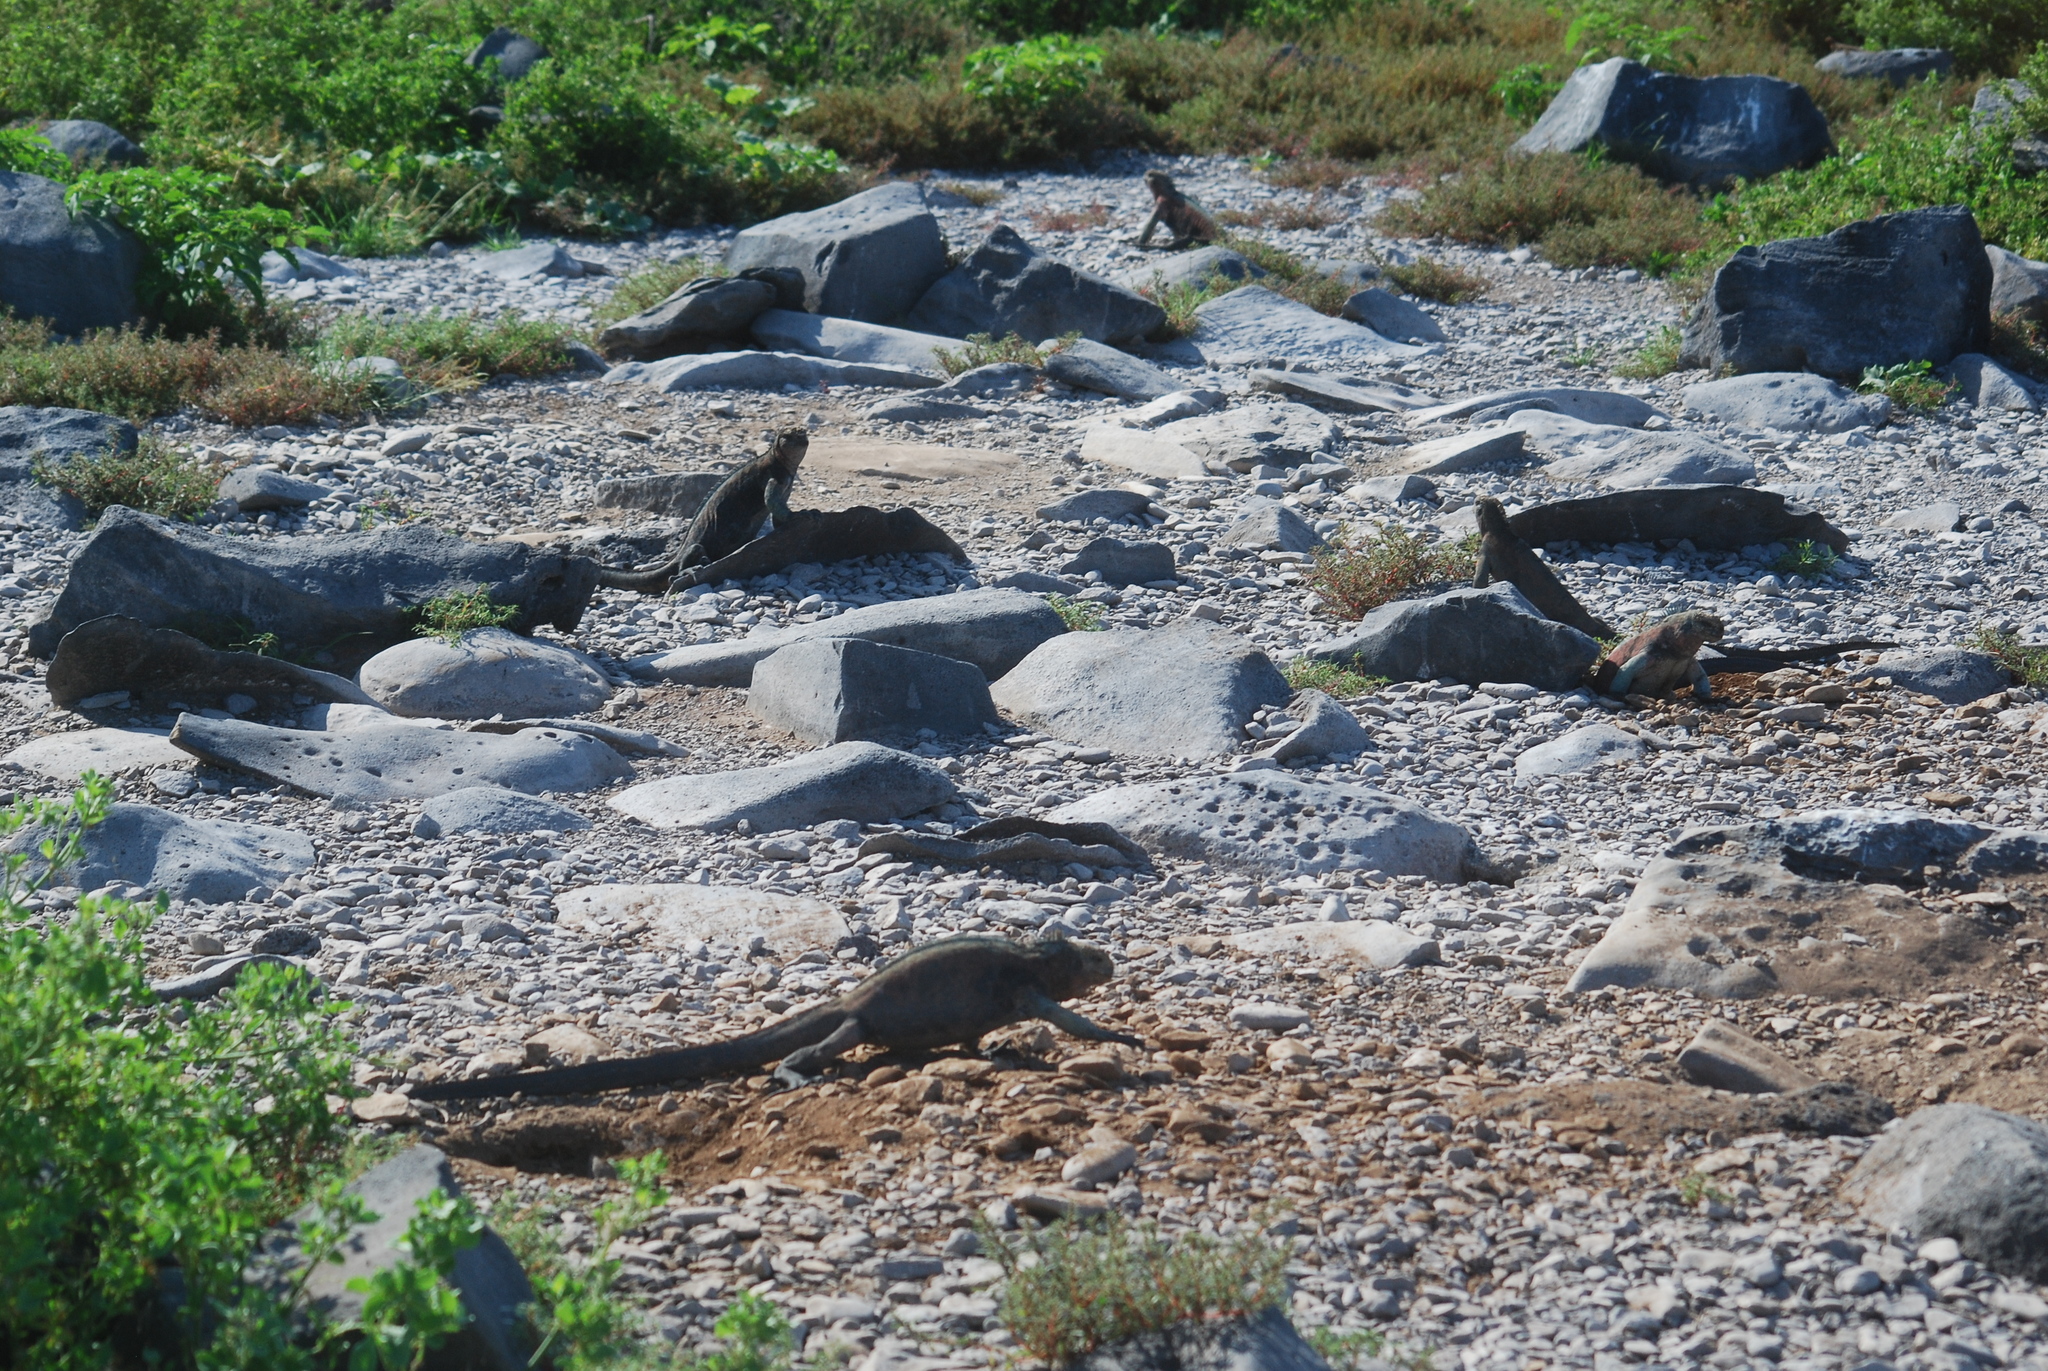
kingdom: Animalia
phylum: Chordata
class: Squamata
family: Iguanidae
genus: Amblyrhynchus
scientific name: Amblyrhynchus cristatus
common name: Marine iguana
